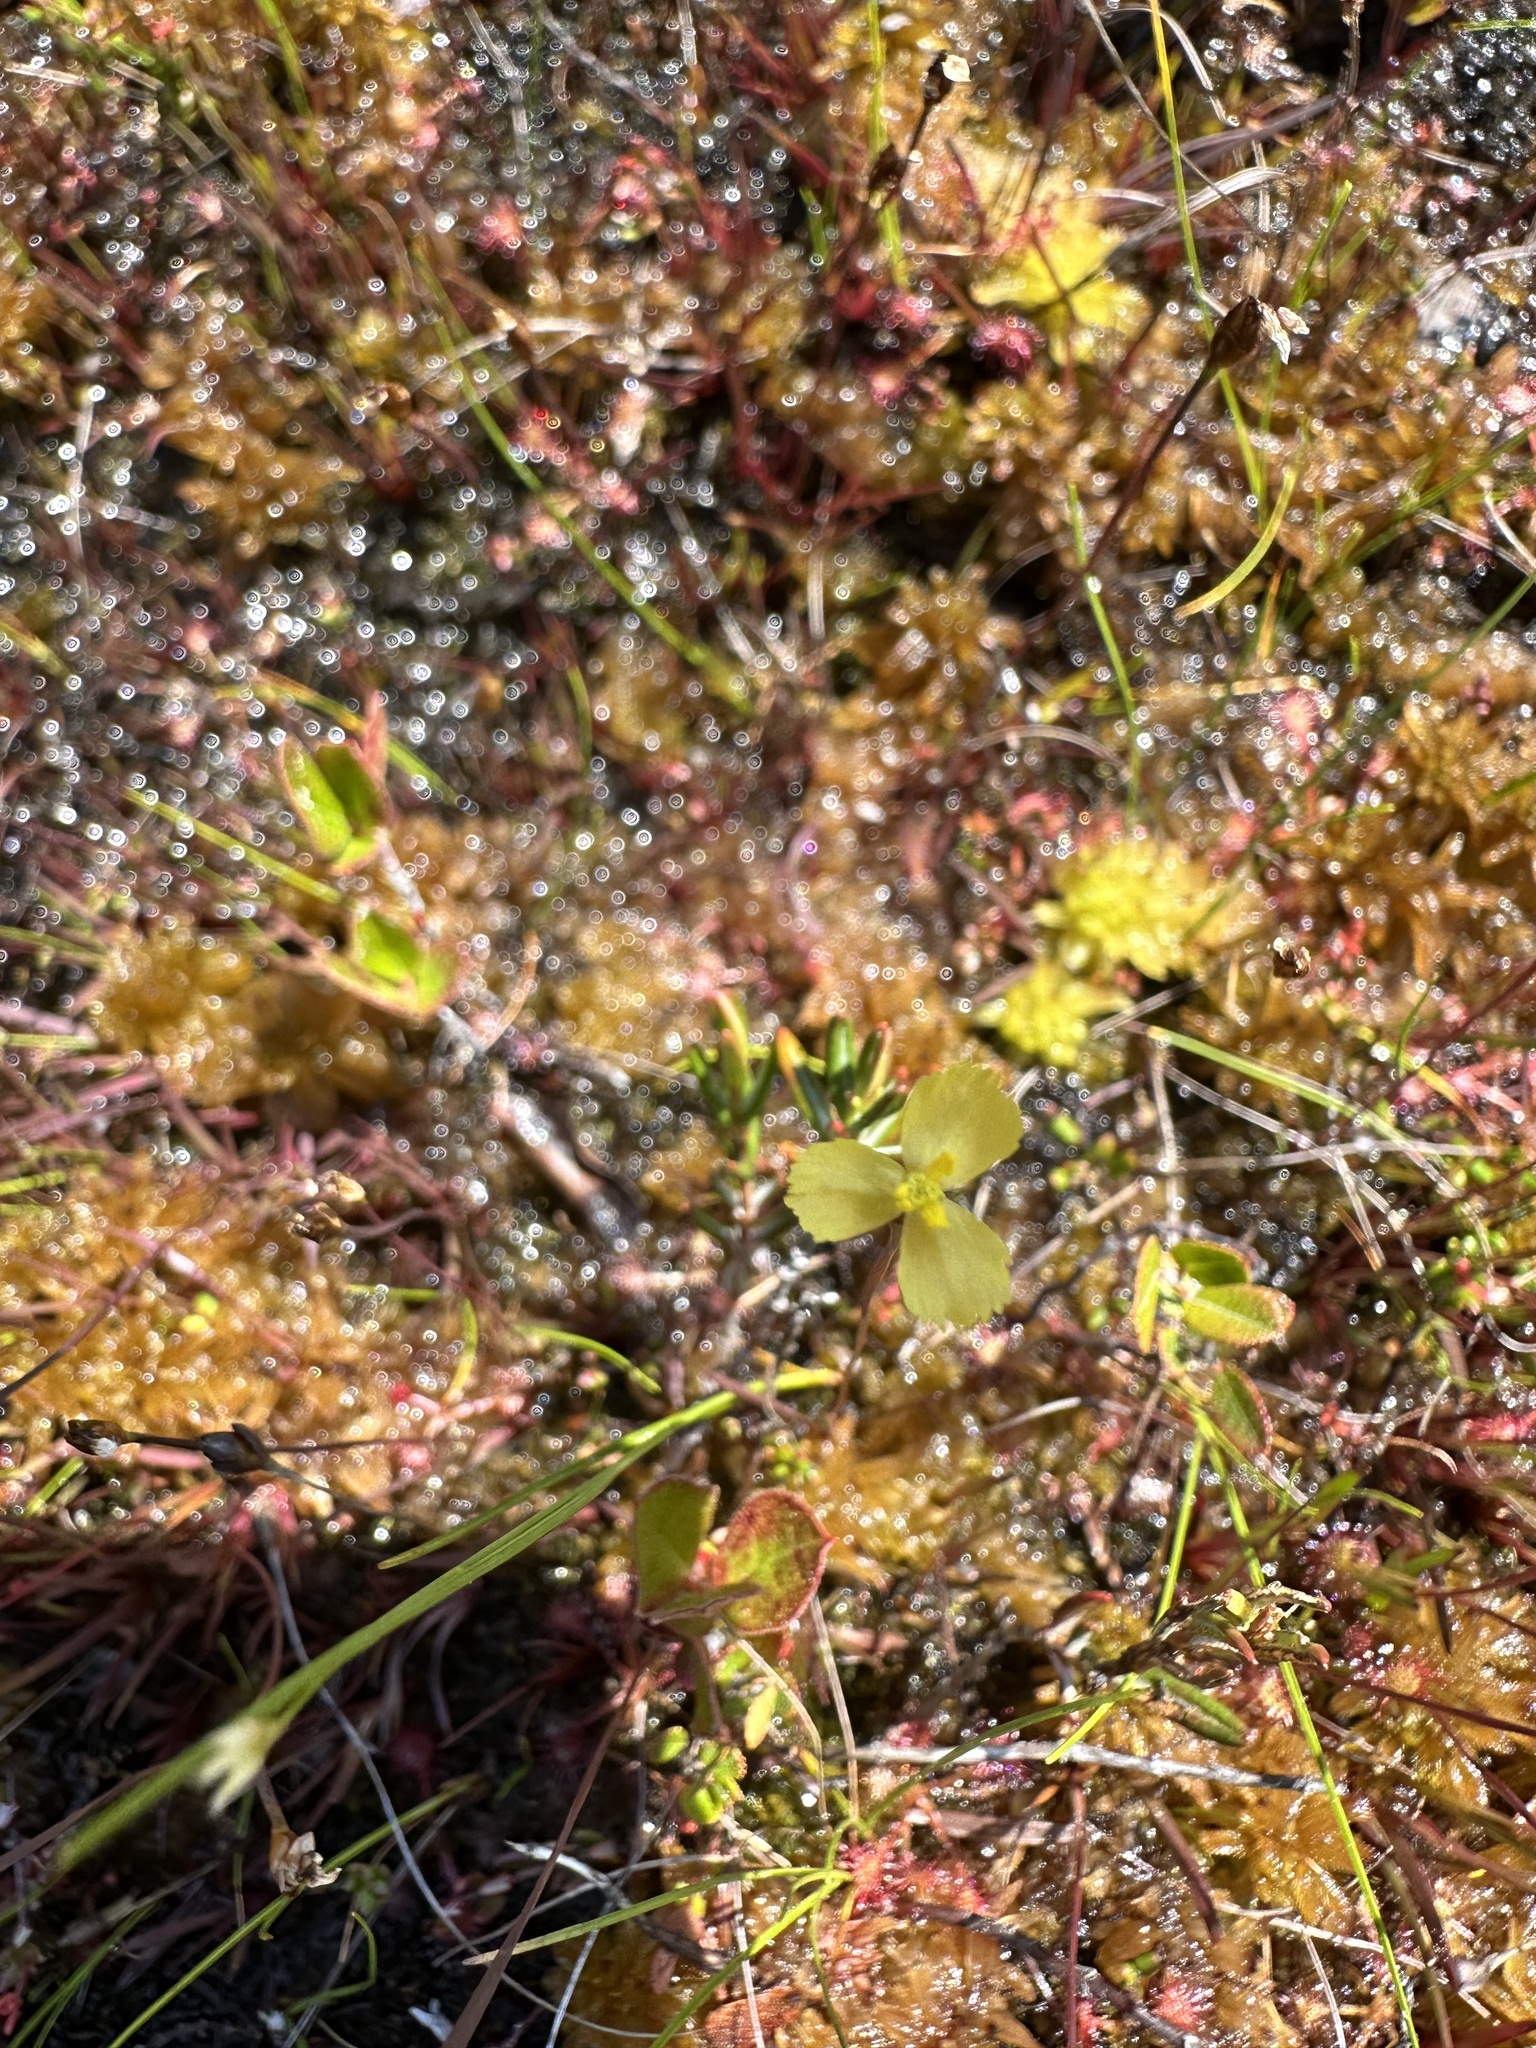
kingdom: Plantae
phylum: Tracheophyta
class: Magnoliopsida
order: Caryophyllales
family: Droseraceae
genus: Drosera
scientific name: Drosera rotundifolia
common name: Round-leaved sundew
